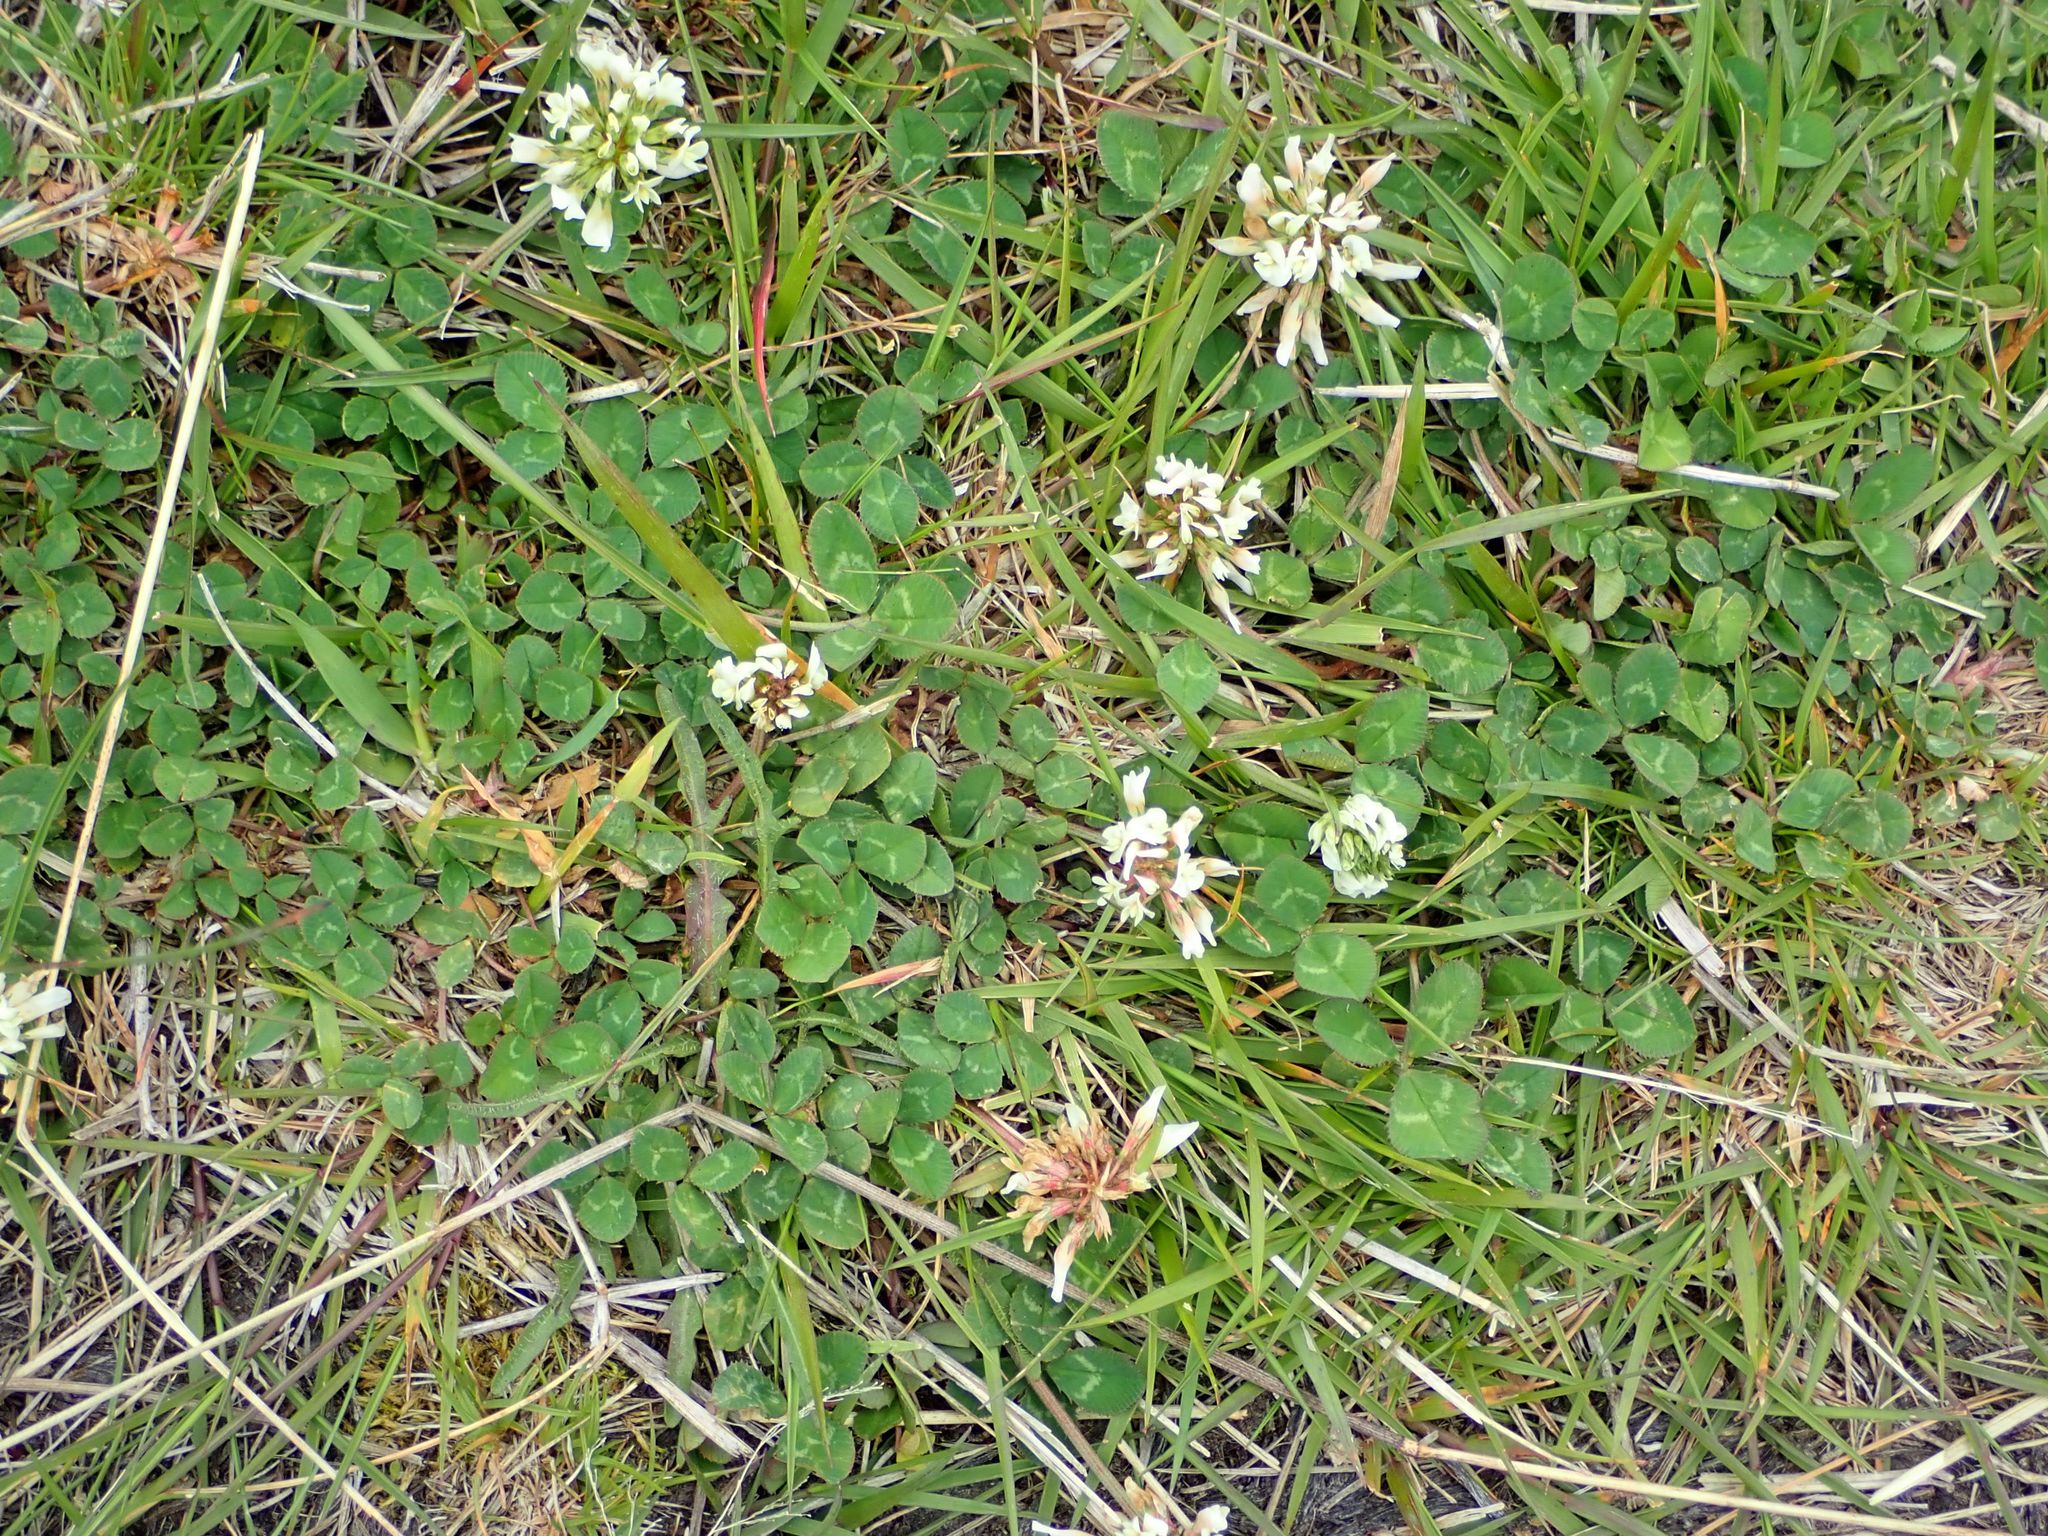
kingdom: Plantae
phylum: Tracheophyta
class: Magnoliopsida
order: Fabales
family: Fabaceae
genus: Trifolium
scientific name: Trifolium repens
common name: White clover
